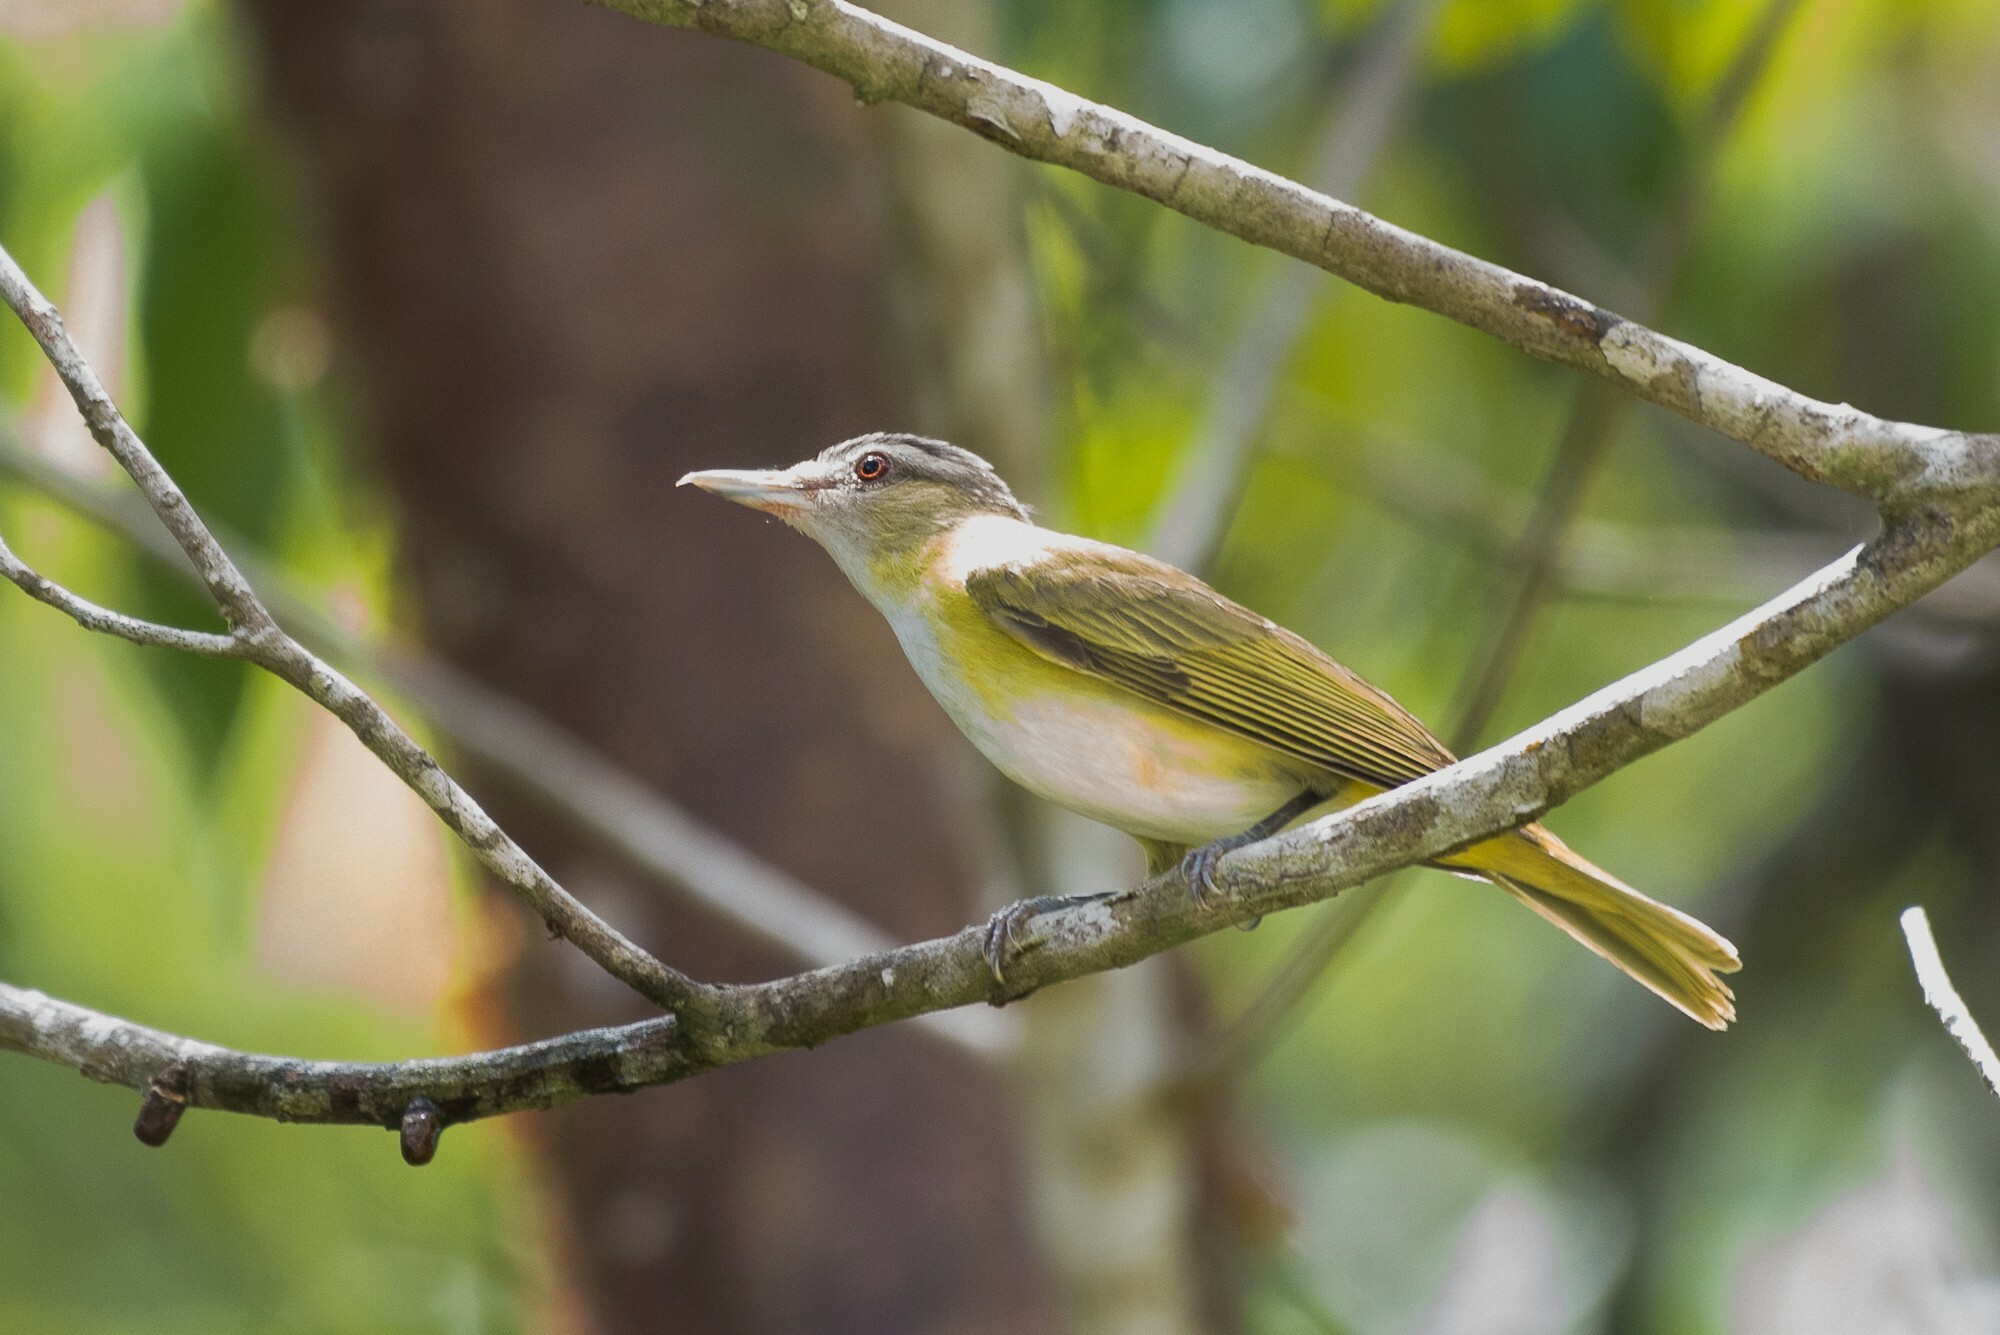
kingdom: Animalia
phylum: Chordata
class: Aves
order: Passeriformes
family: Vireonidae
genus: Vireo
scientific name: Vireo flavoviridis
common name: Yellow-green vireo
